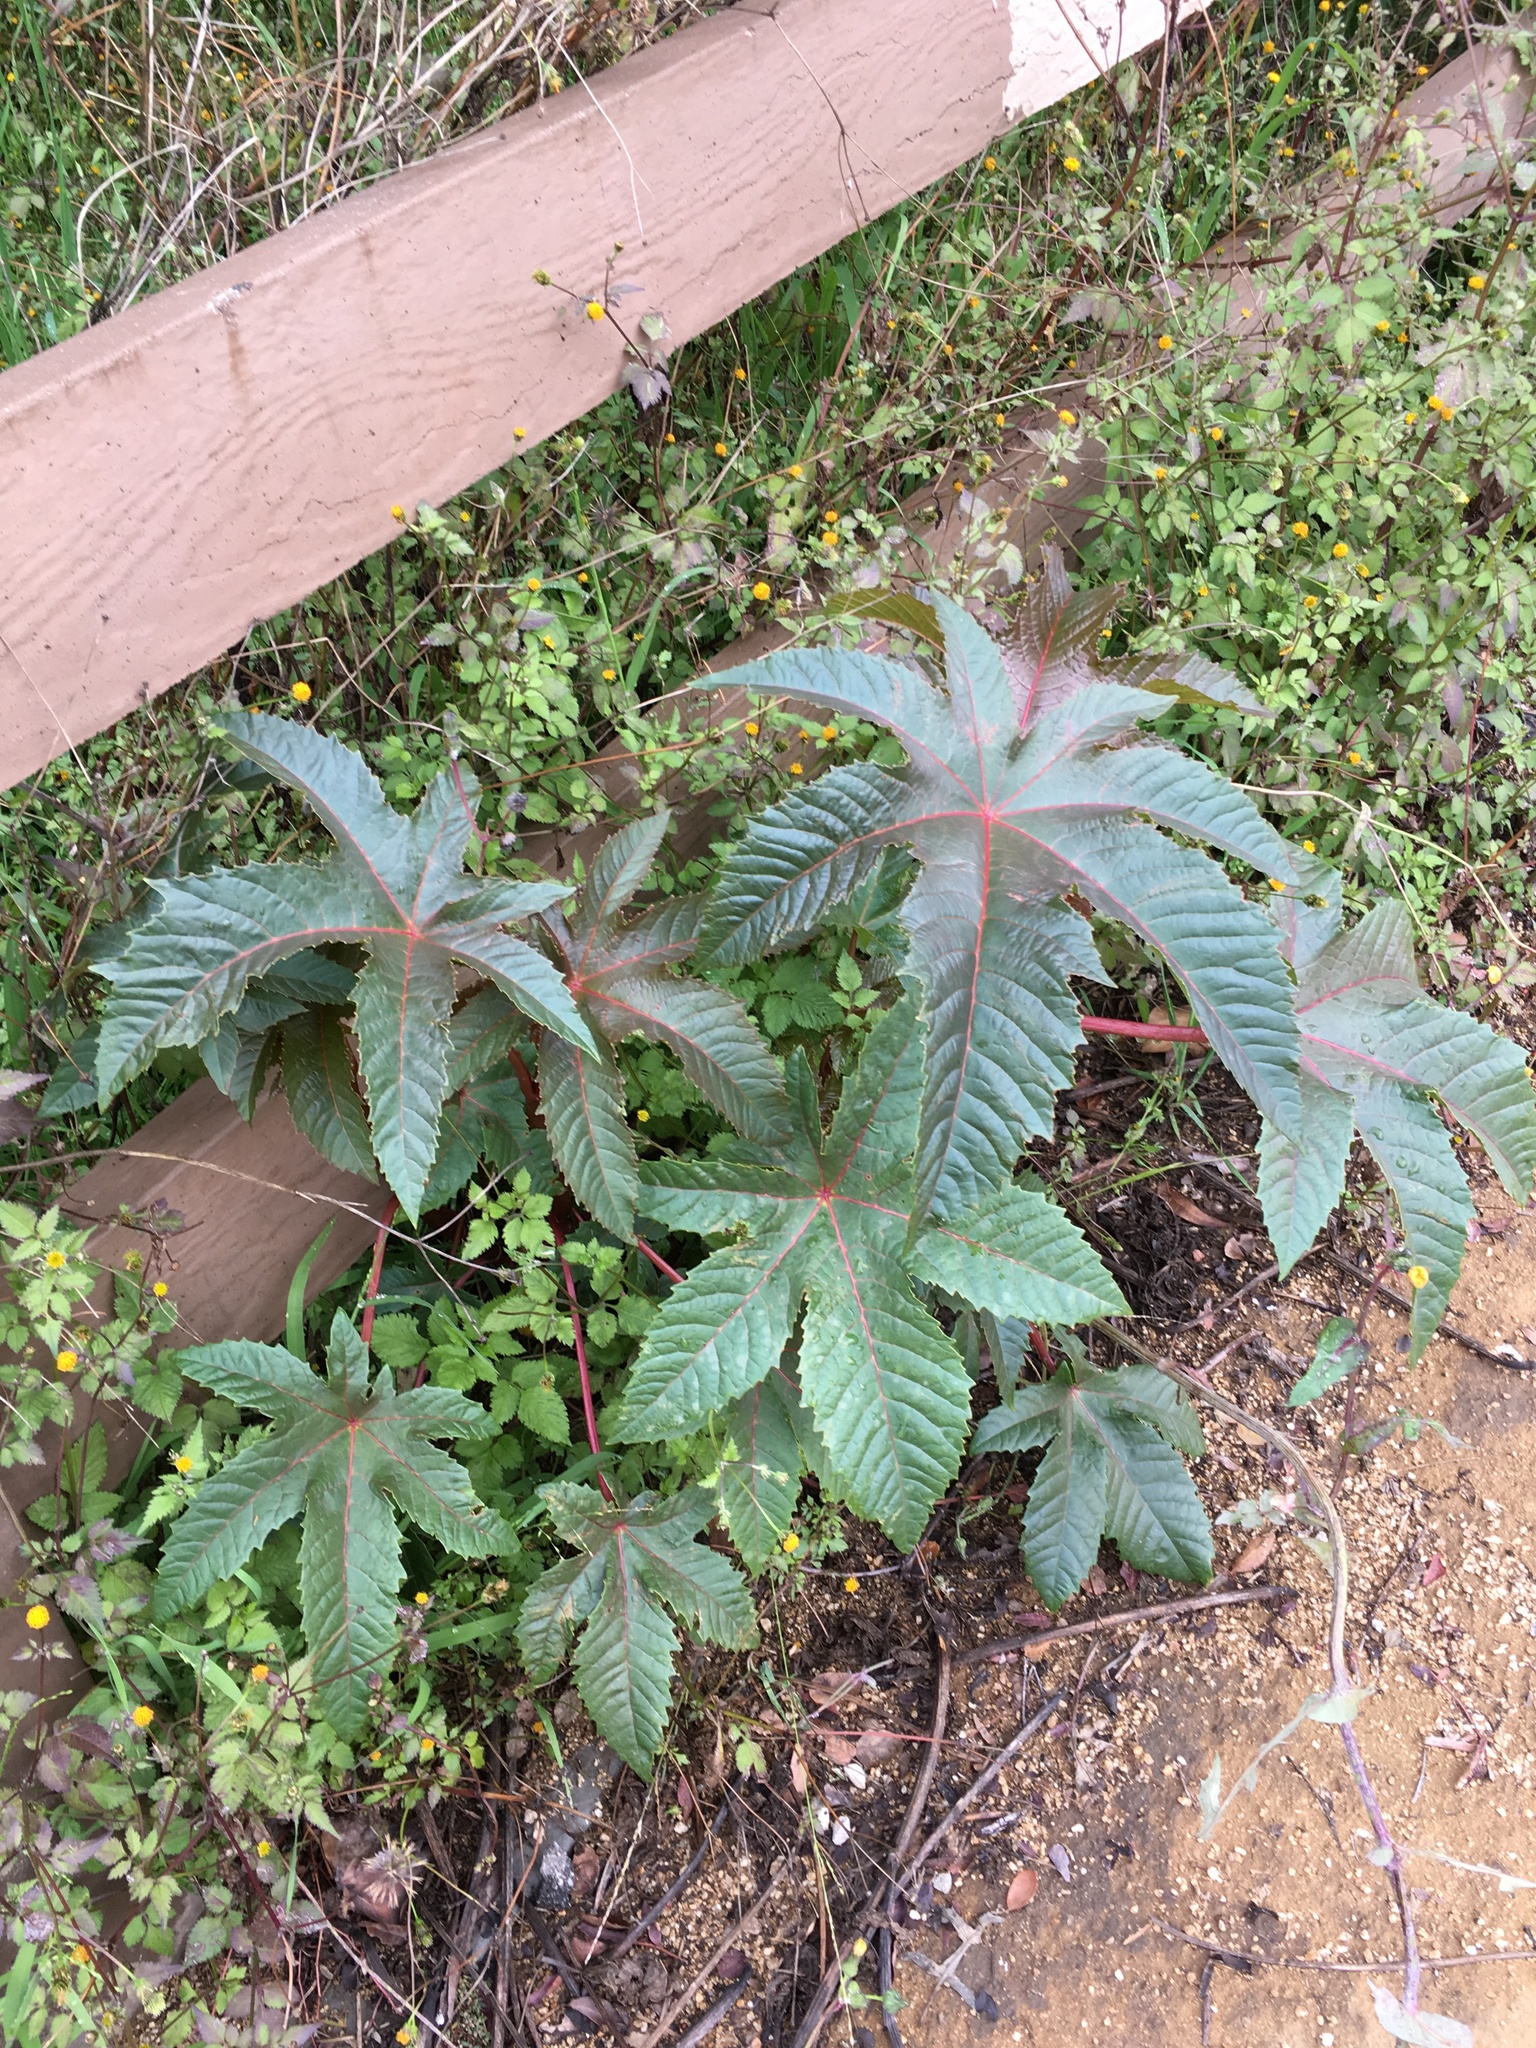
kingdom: Plantae
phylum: Tracheophyta
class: Magnoliopsida
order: Malpighiales
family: Euphorbiaceae
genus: Ricinus
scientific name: Ricinus communis
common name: Castor-oil-plant
